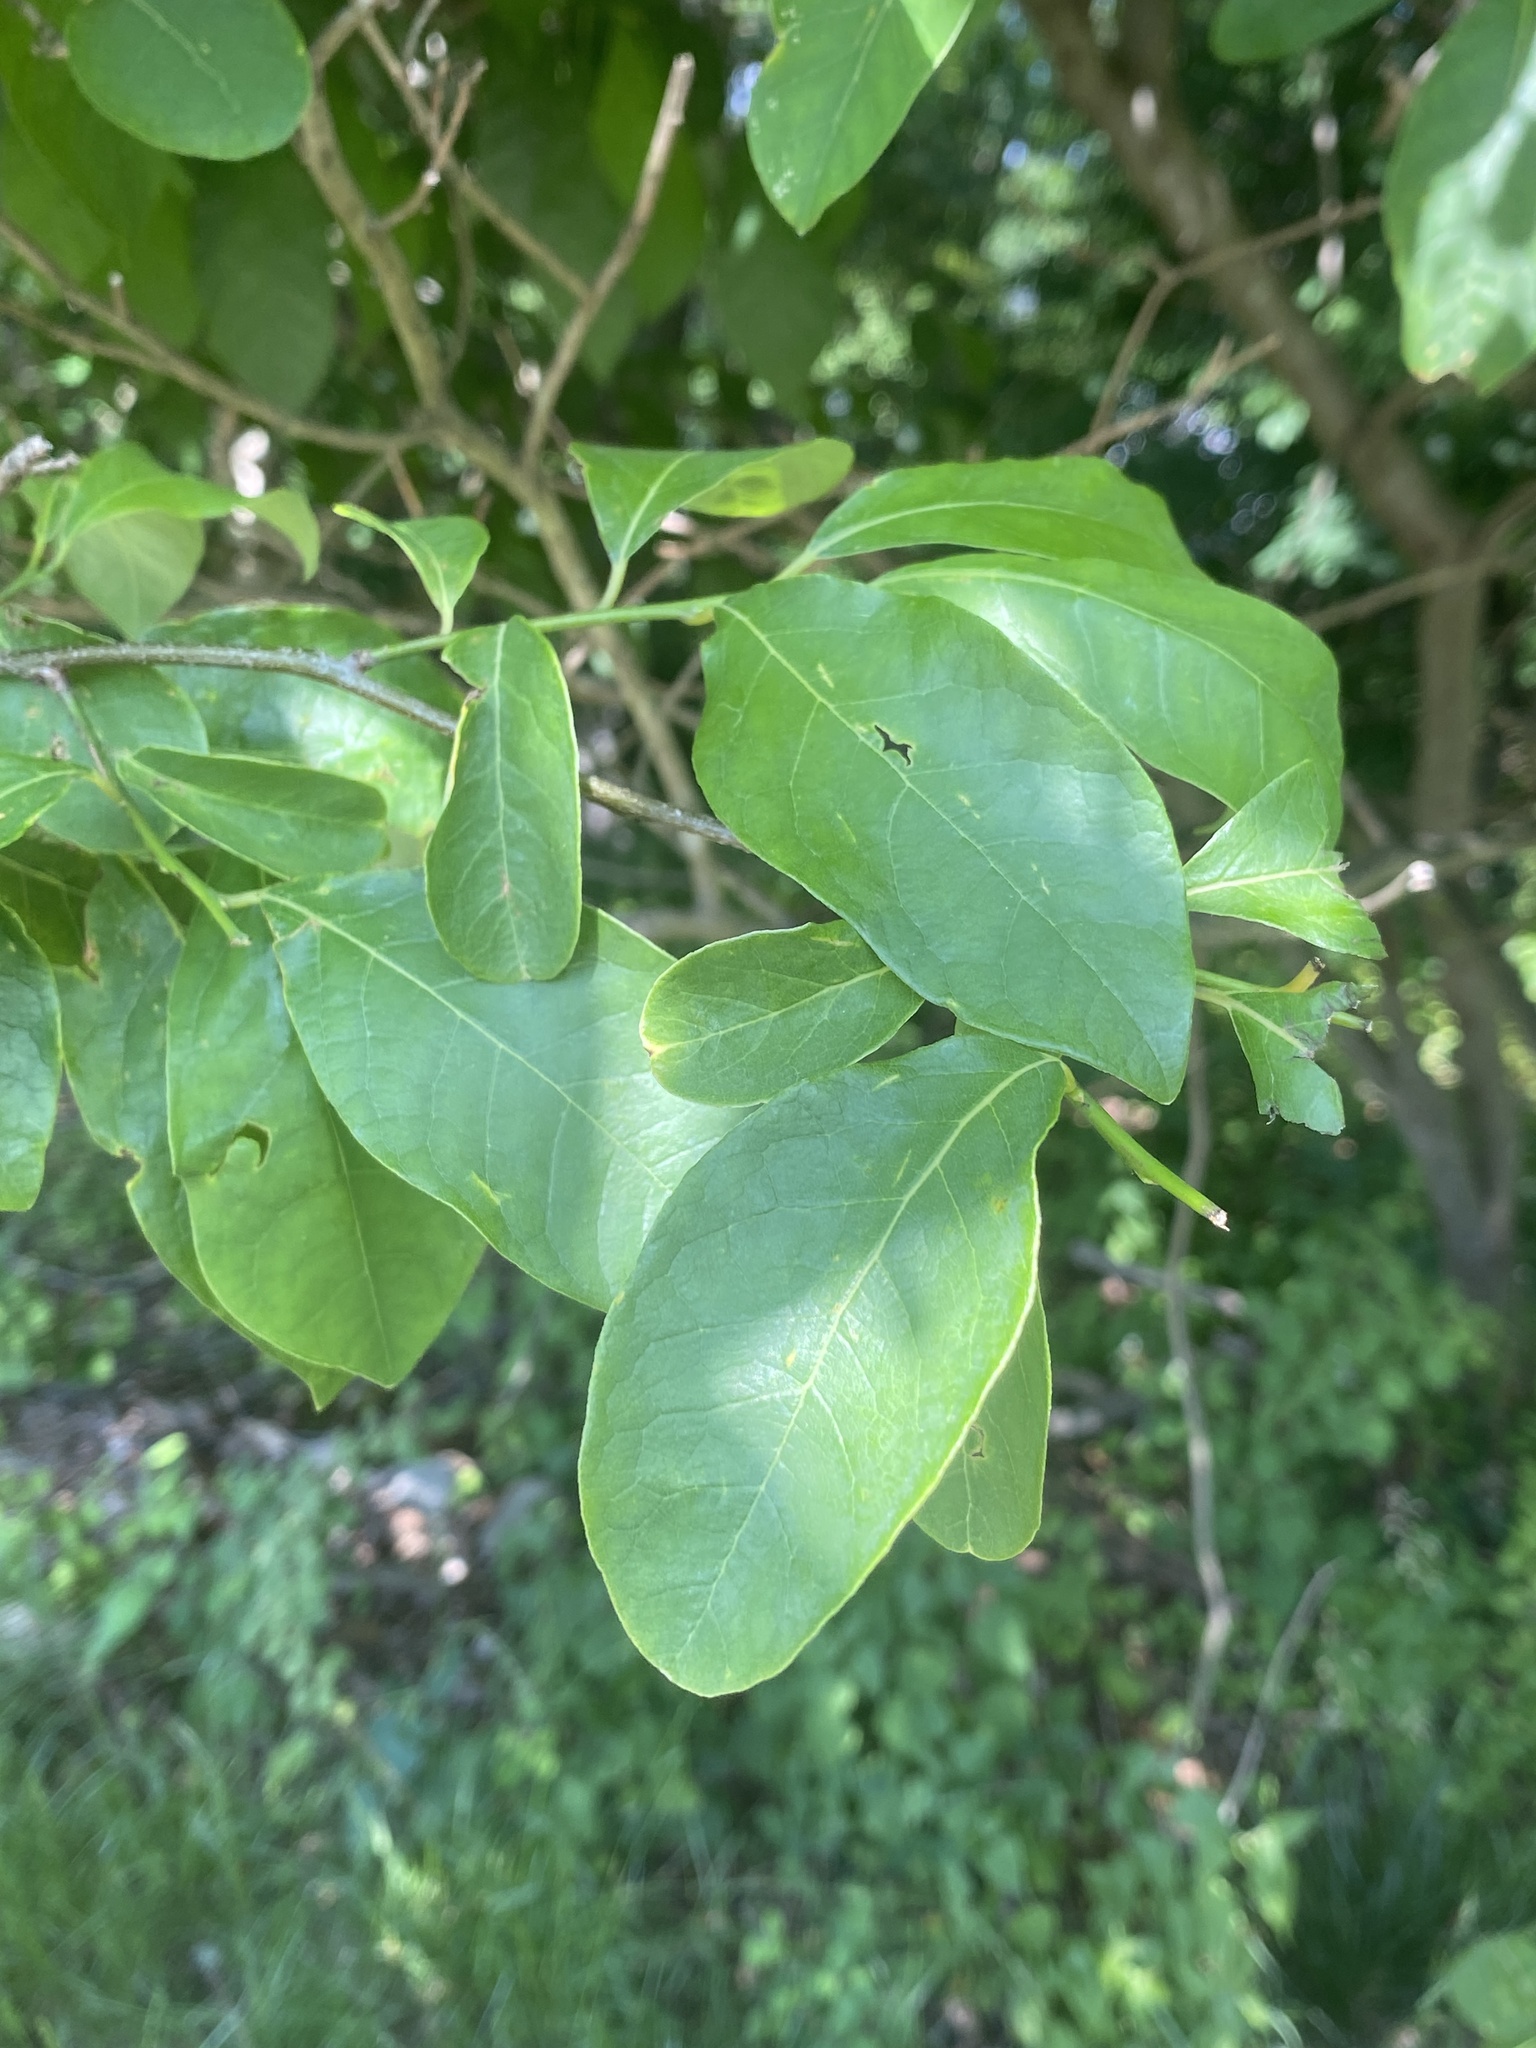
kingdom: Plantae
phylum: Tracheophyta
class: Magnoliopsida
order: Laurales
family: Lauraceae
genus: Lindera
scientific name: Lindera benzoin
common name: Spicebush
